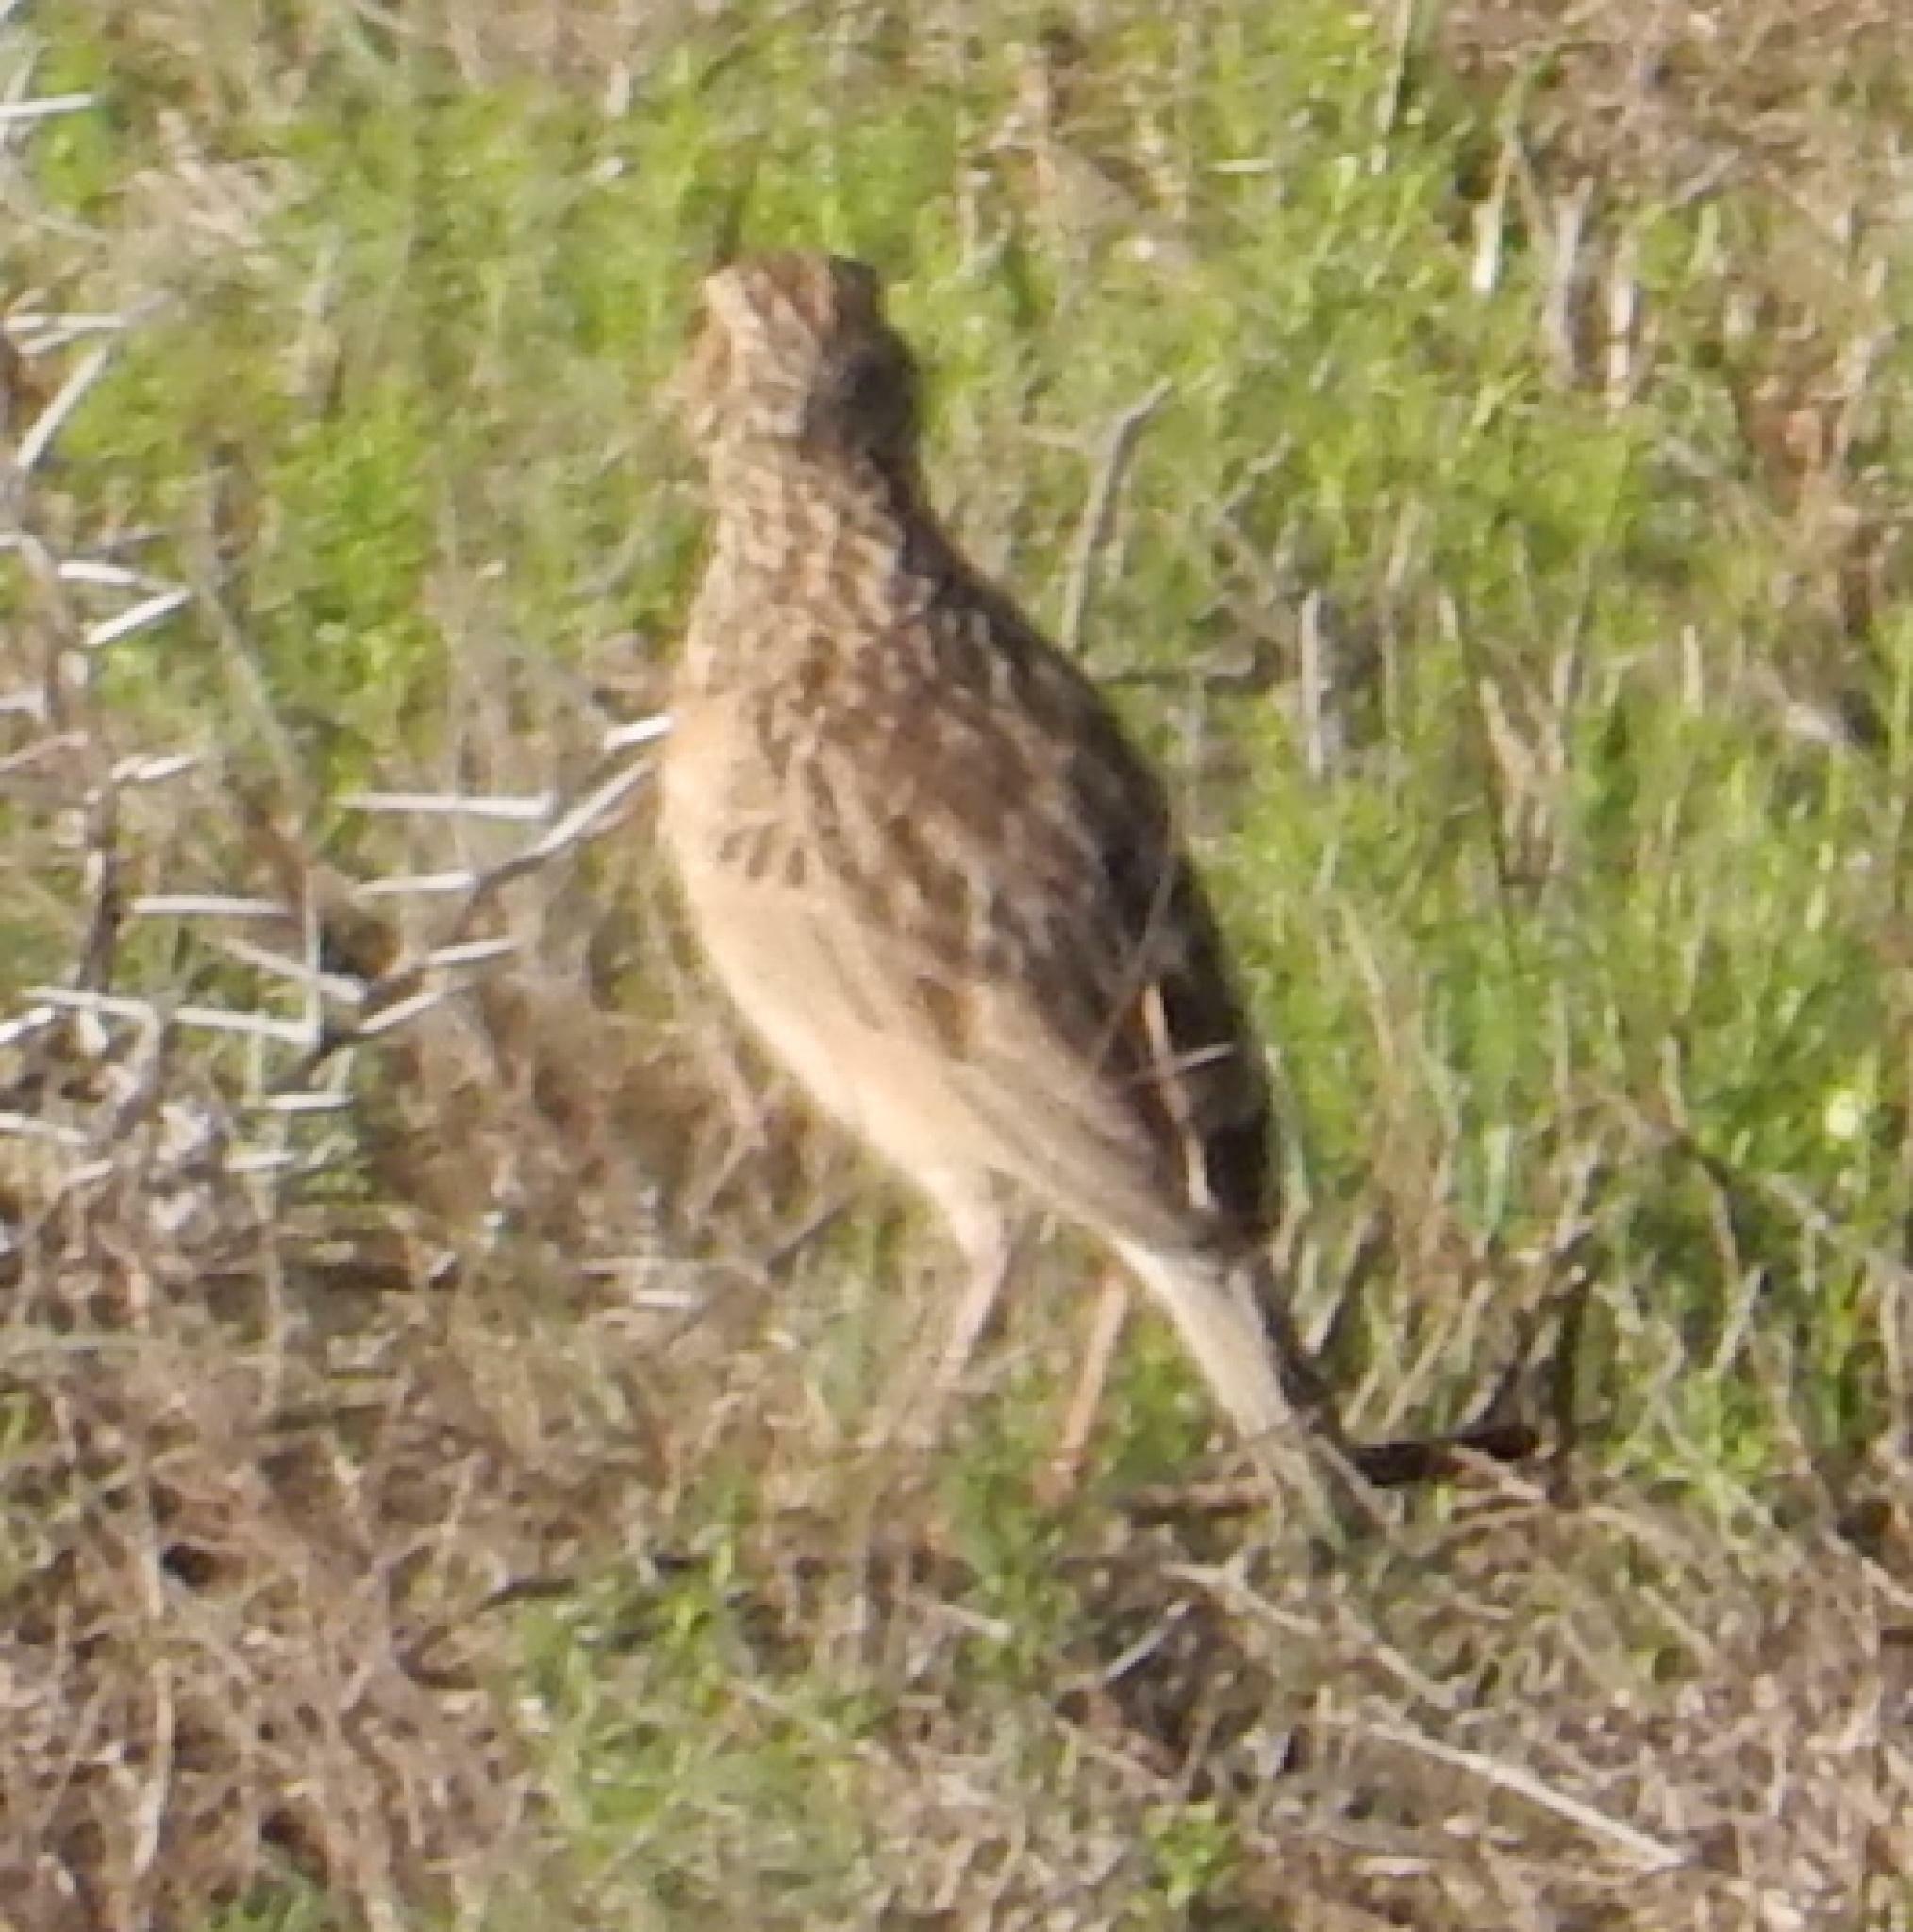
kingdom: Animalia
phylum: Chordata
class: Aves
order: Passeriformes
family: Alaudidae
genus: Mirafra
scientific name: Mirafra africana
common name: Rufous-naped lark
